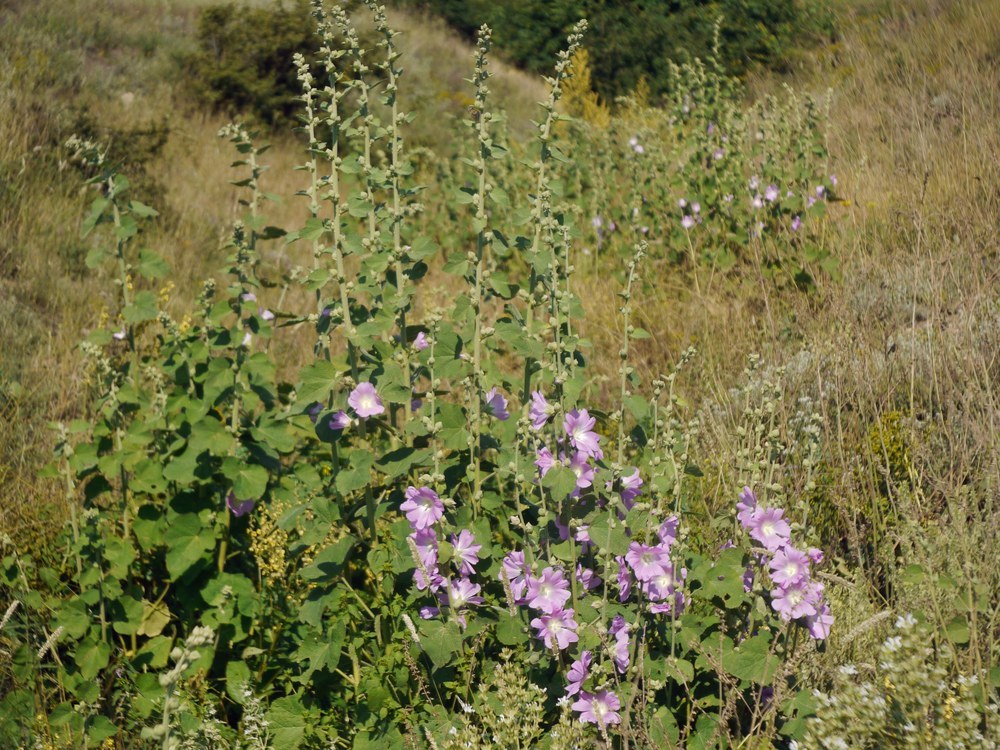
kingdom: Plantae
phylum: Tracheophyta
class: Magnoliopsida
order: Malvales
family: Malvaceae
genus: Alcea
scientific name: Alcea pallida
